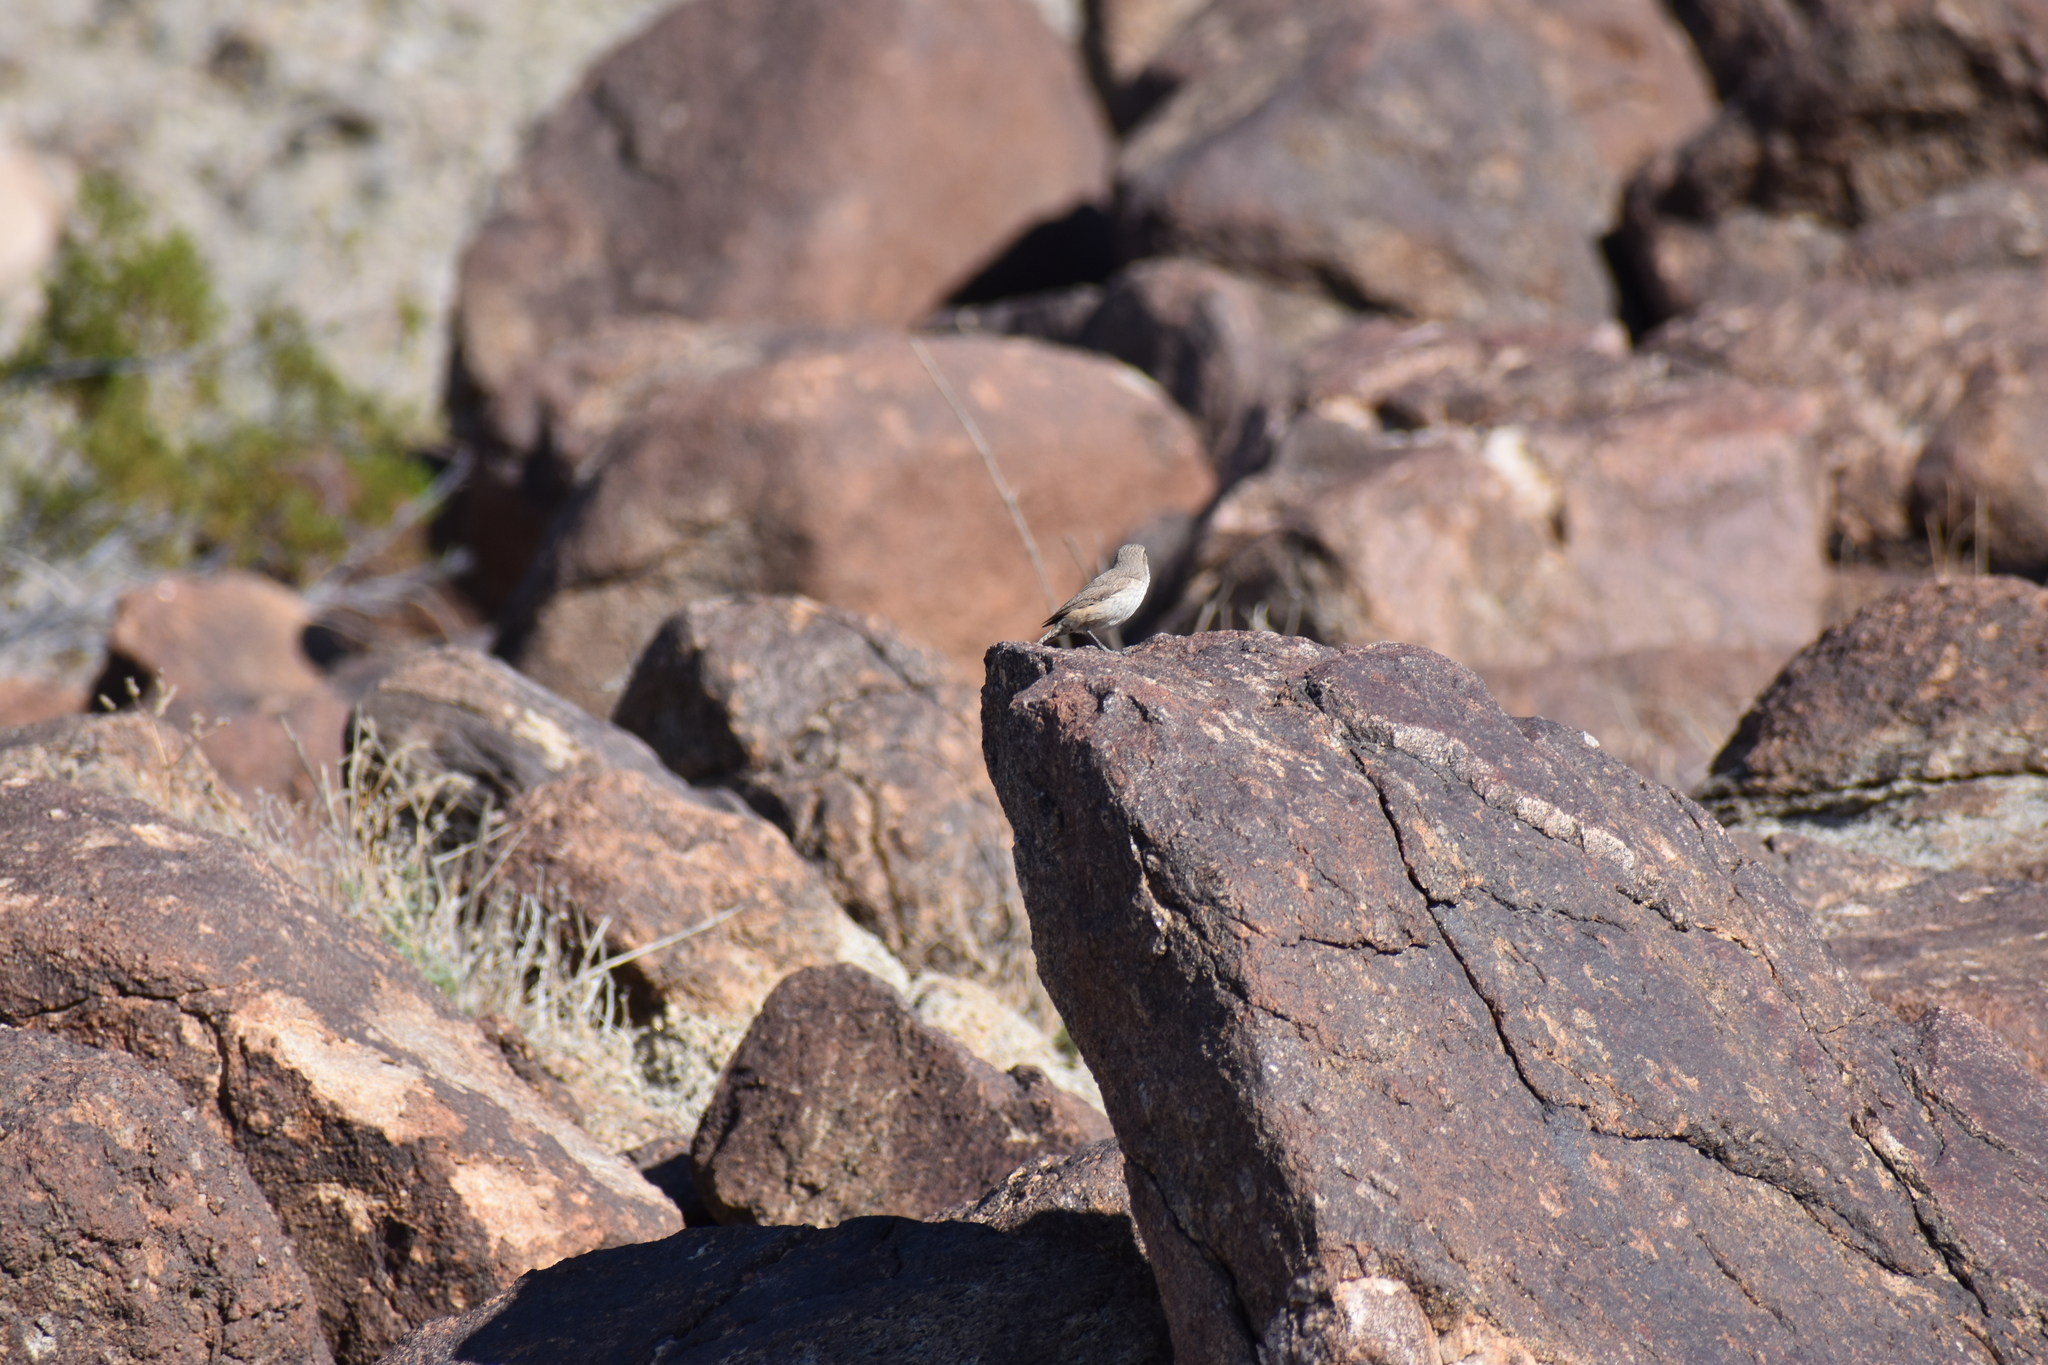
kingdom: Animalia
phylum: Chordata
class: Aves
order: Passeriformes
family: Troglodytidae
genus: Salpinctes
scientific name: Salpinctes obsoletus
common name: Rock wren
